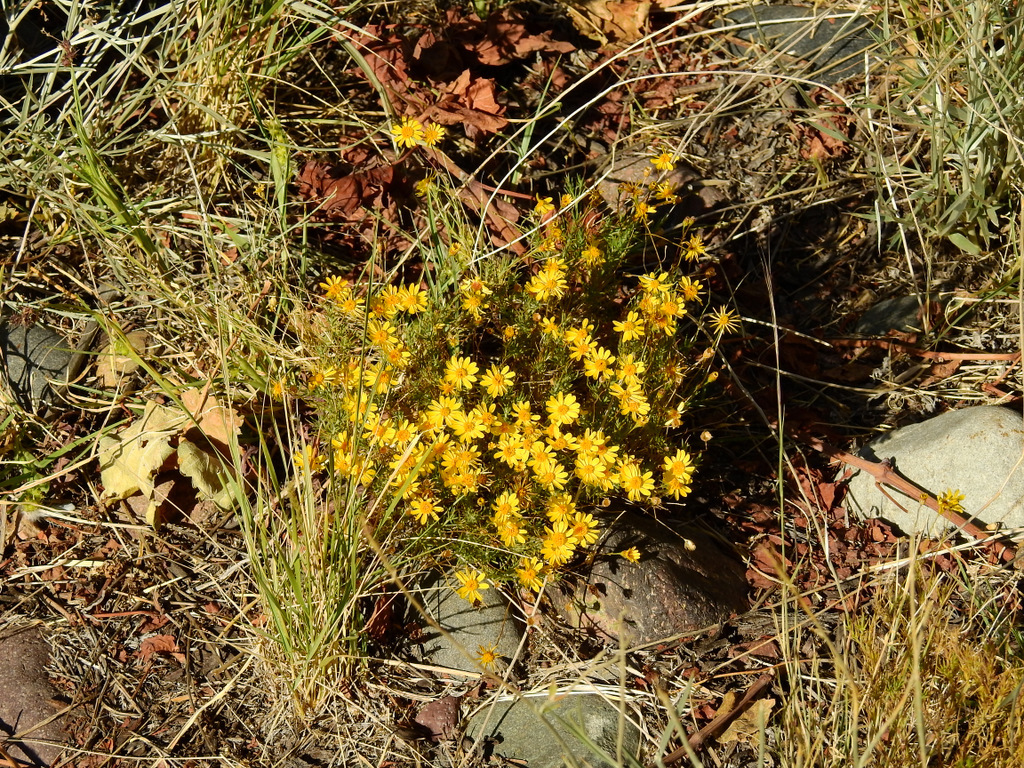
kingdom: Plantae
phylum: Tracheophyta
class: Magnoliopsida
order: Asterales
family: Asteraceae
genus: Thymophylla
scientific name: Thymophylla pentachaeta
